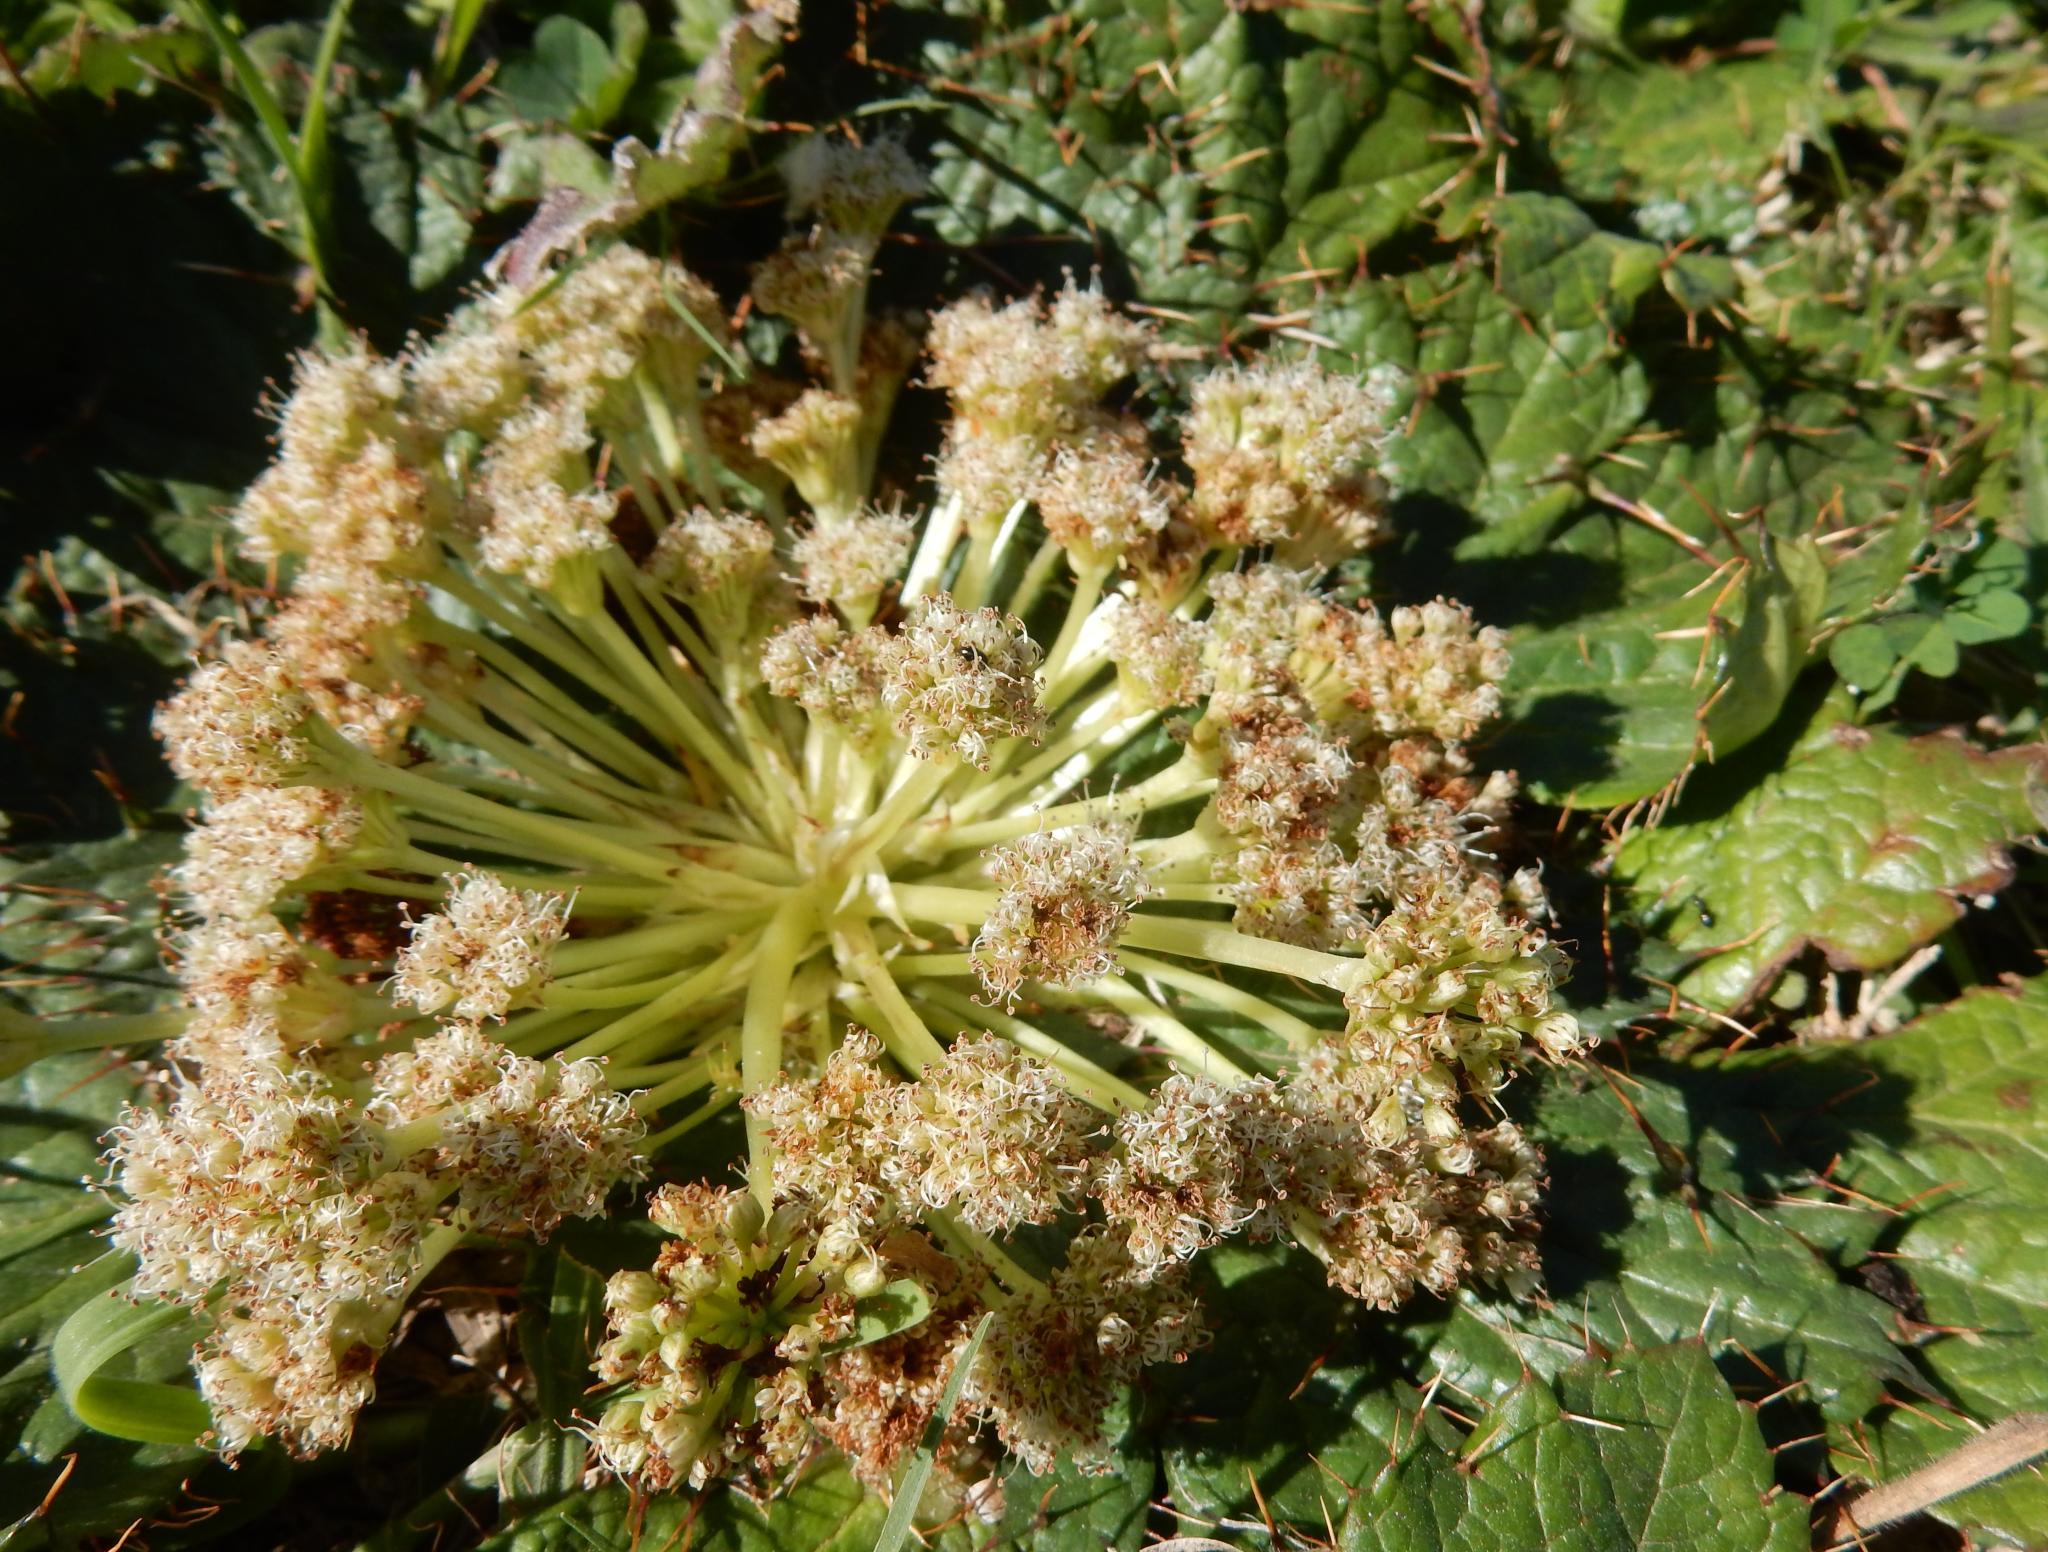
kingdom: Plantae
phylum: Tracheophyta
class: Magnoliopsida
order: Apiales
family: Apiaceae
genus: Arctopus
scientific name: Arctopus echinatus
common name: Platdoring
